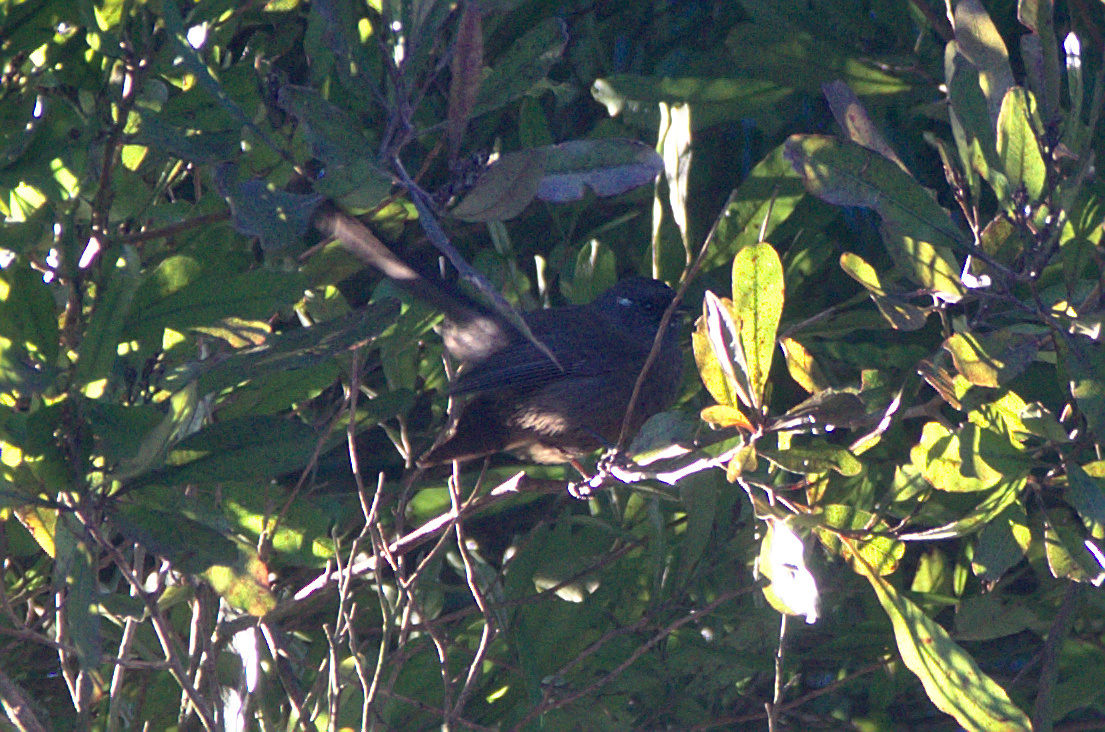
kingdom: Animalia
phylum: Chordata
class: Aves
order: Passeriformes
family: Rhipiduridae
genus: Rhipidura
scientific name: Rhipidura fuliginosa
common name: New zealand fantail
